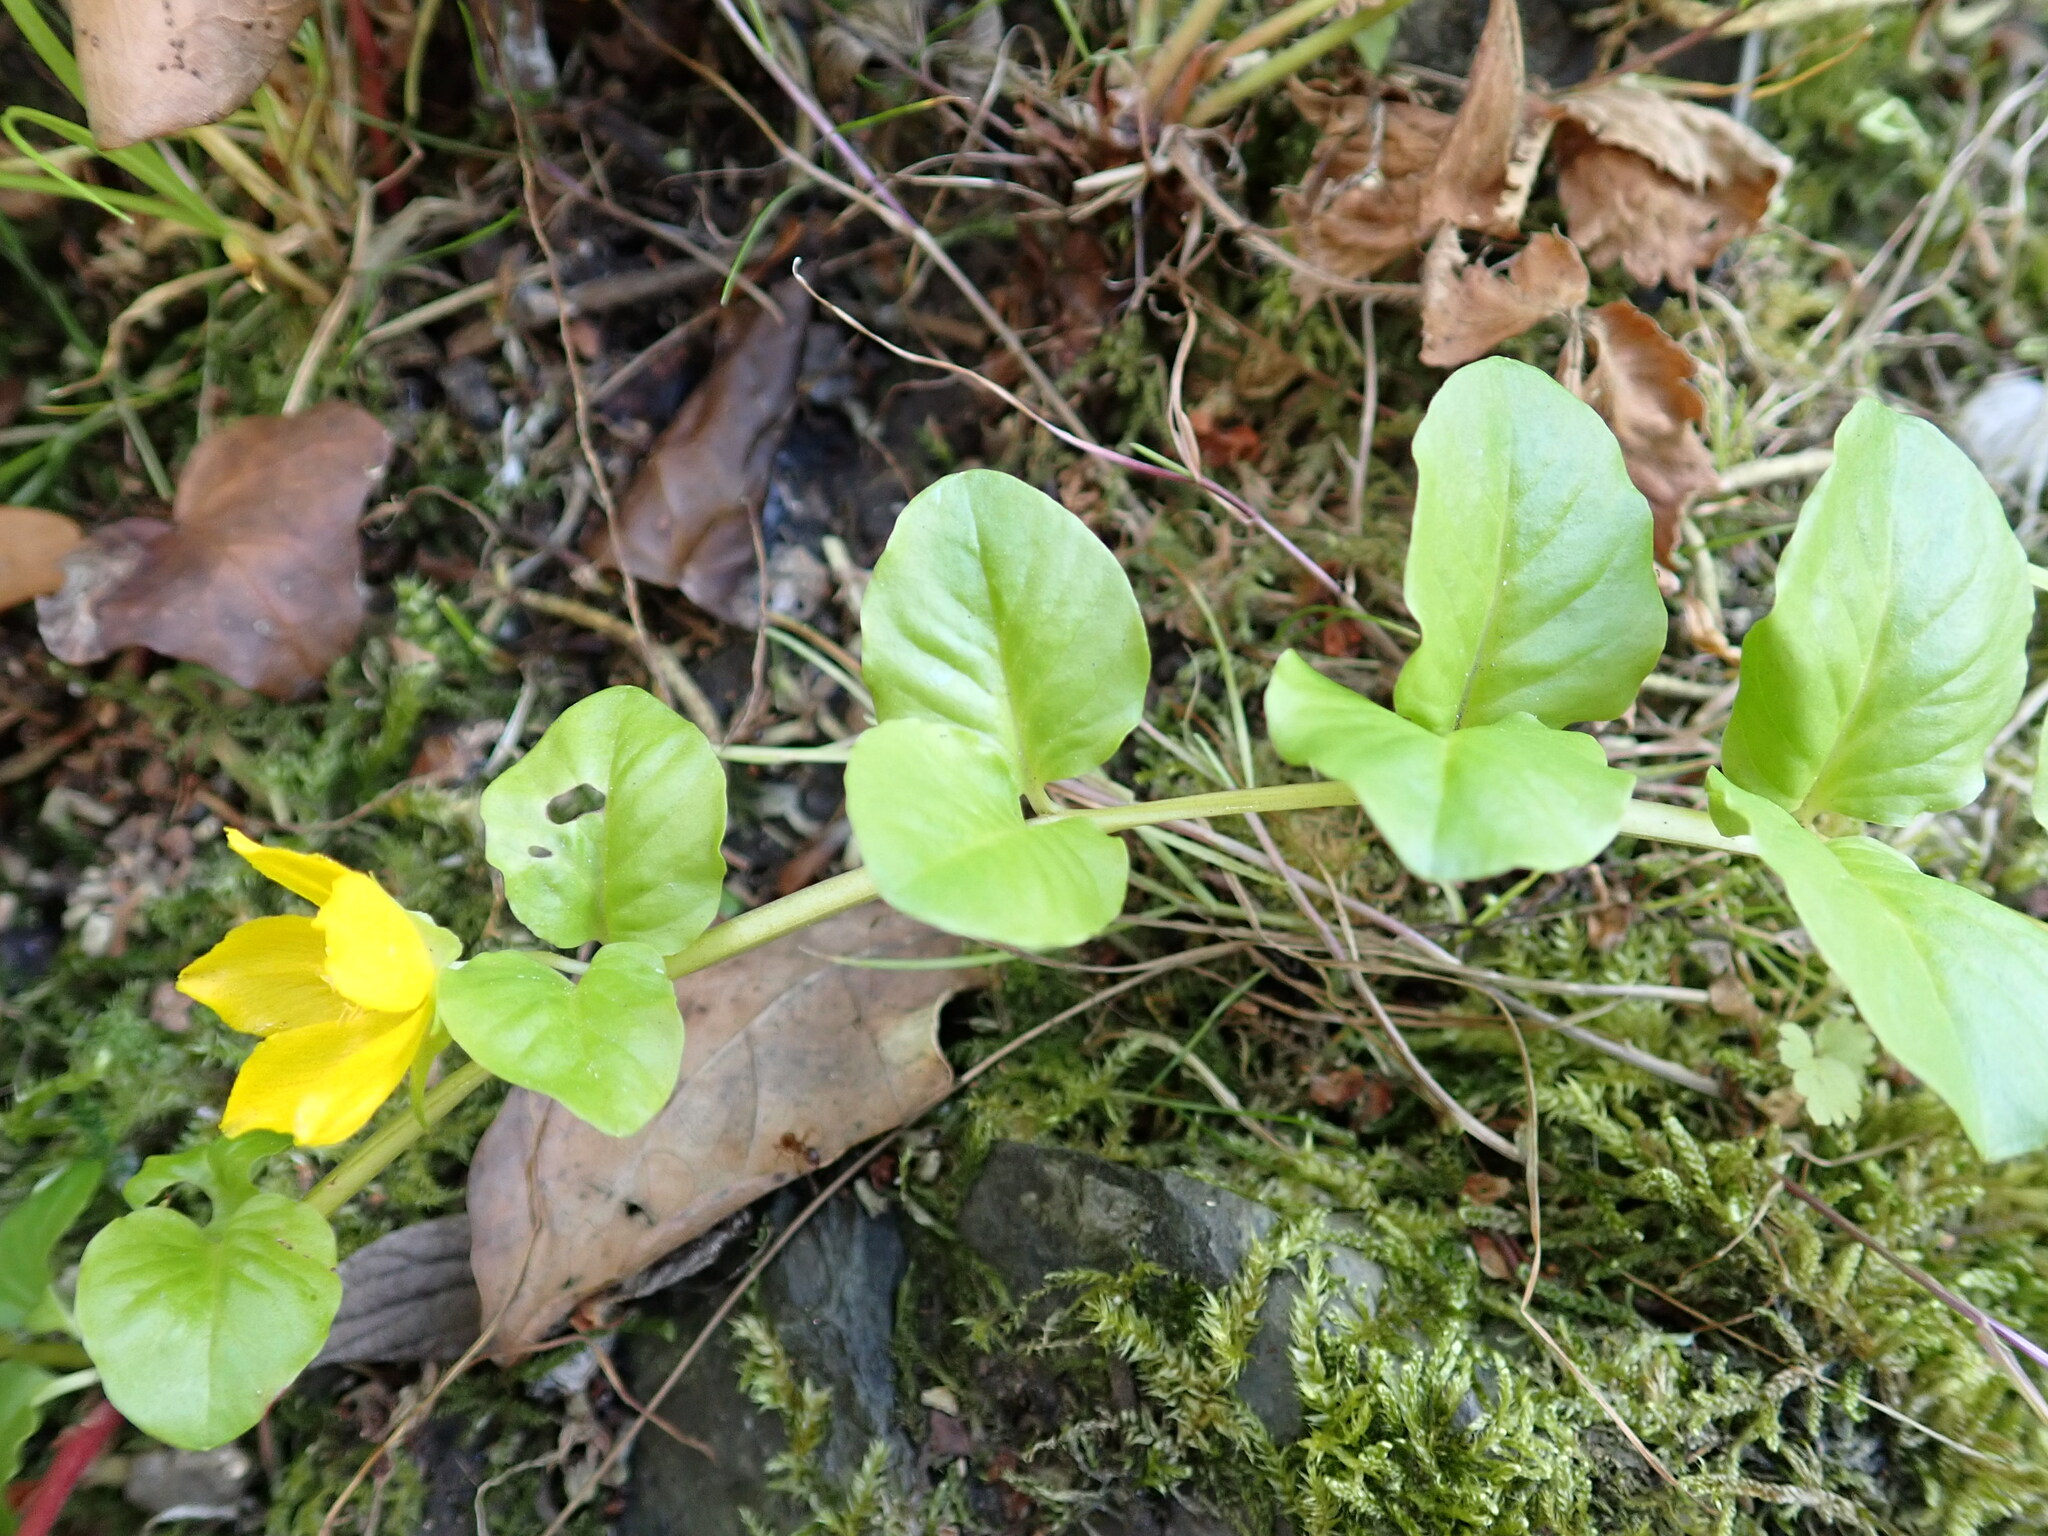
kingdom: Plantae
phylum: Tracheophyta
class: Magnoliopsida
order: Ericales
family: Primulaceae
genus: Lysimachia
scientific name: Lysimachia nummularia
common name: Moneywort
